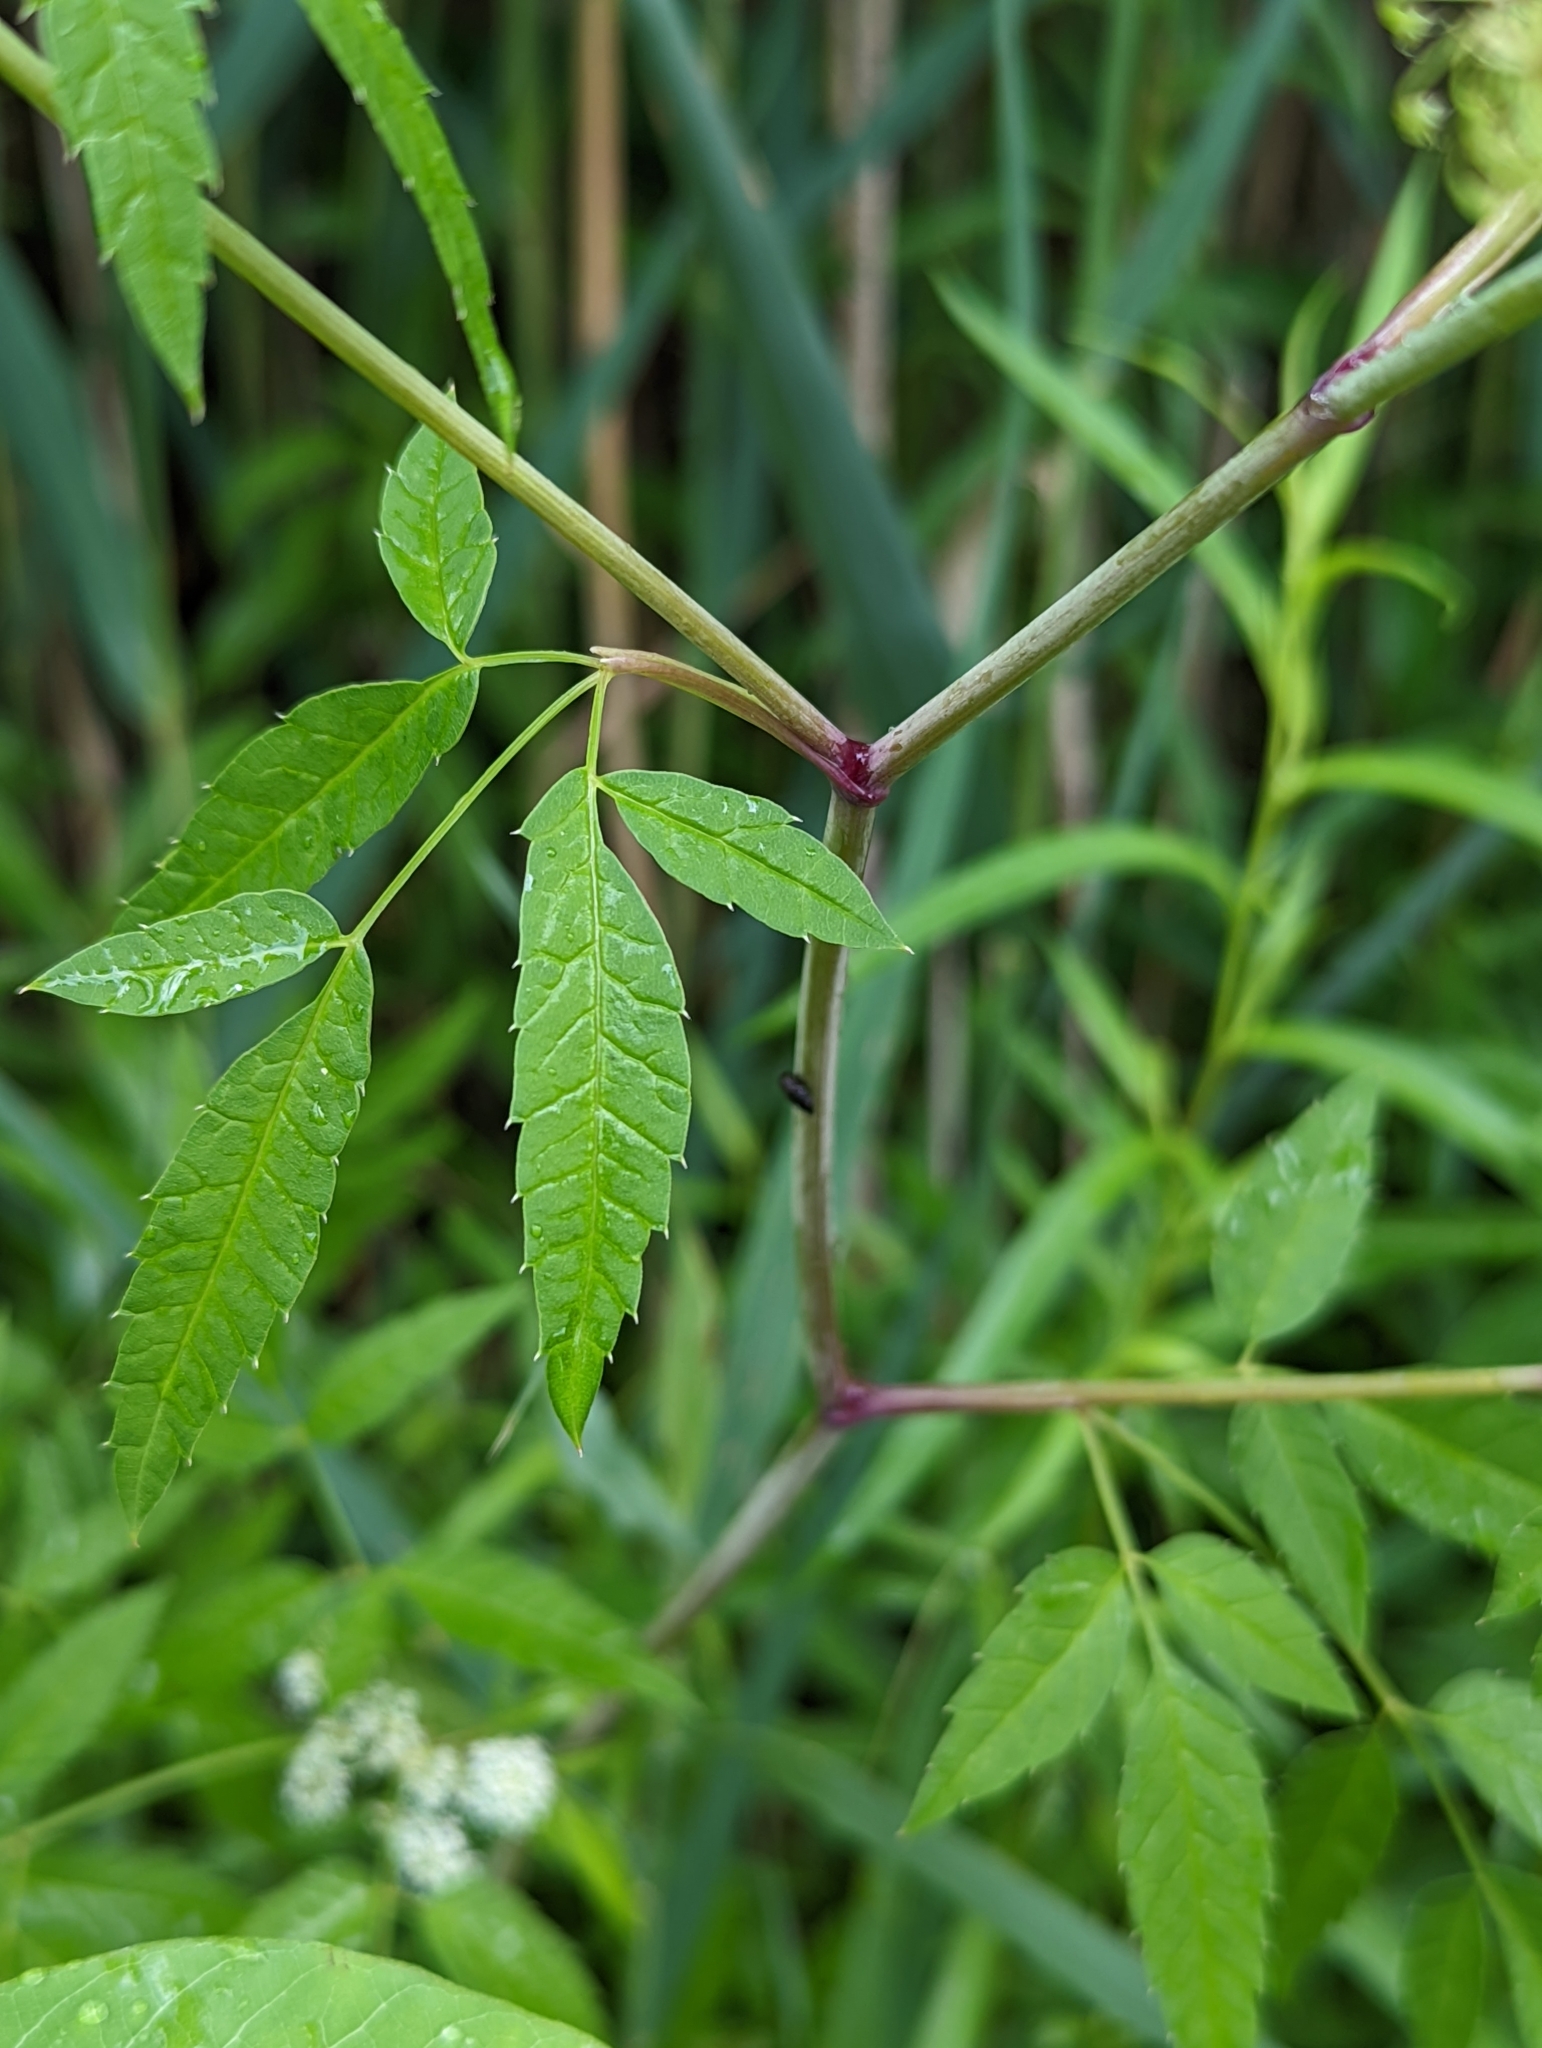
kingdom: Plantae
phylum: Tracheophyta
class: Magnoliopsida
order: Apiales
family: Apiaceae
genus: Cicuta
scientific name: Cicuta maculata
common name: Spotted cowbane
